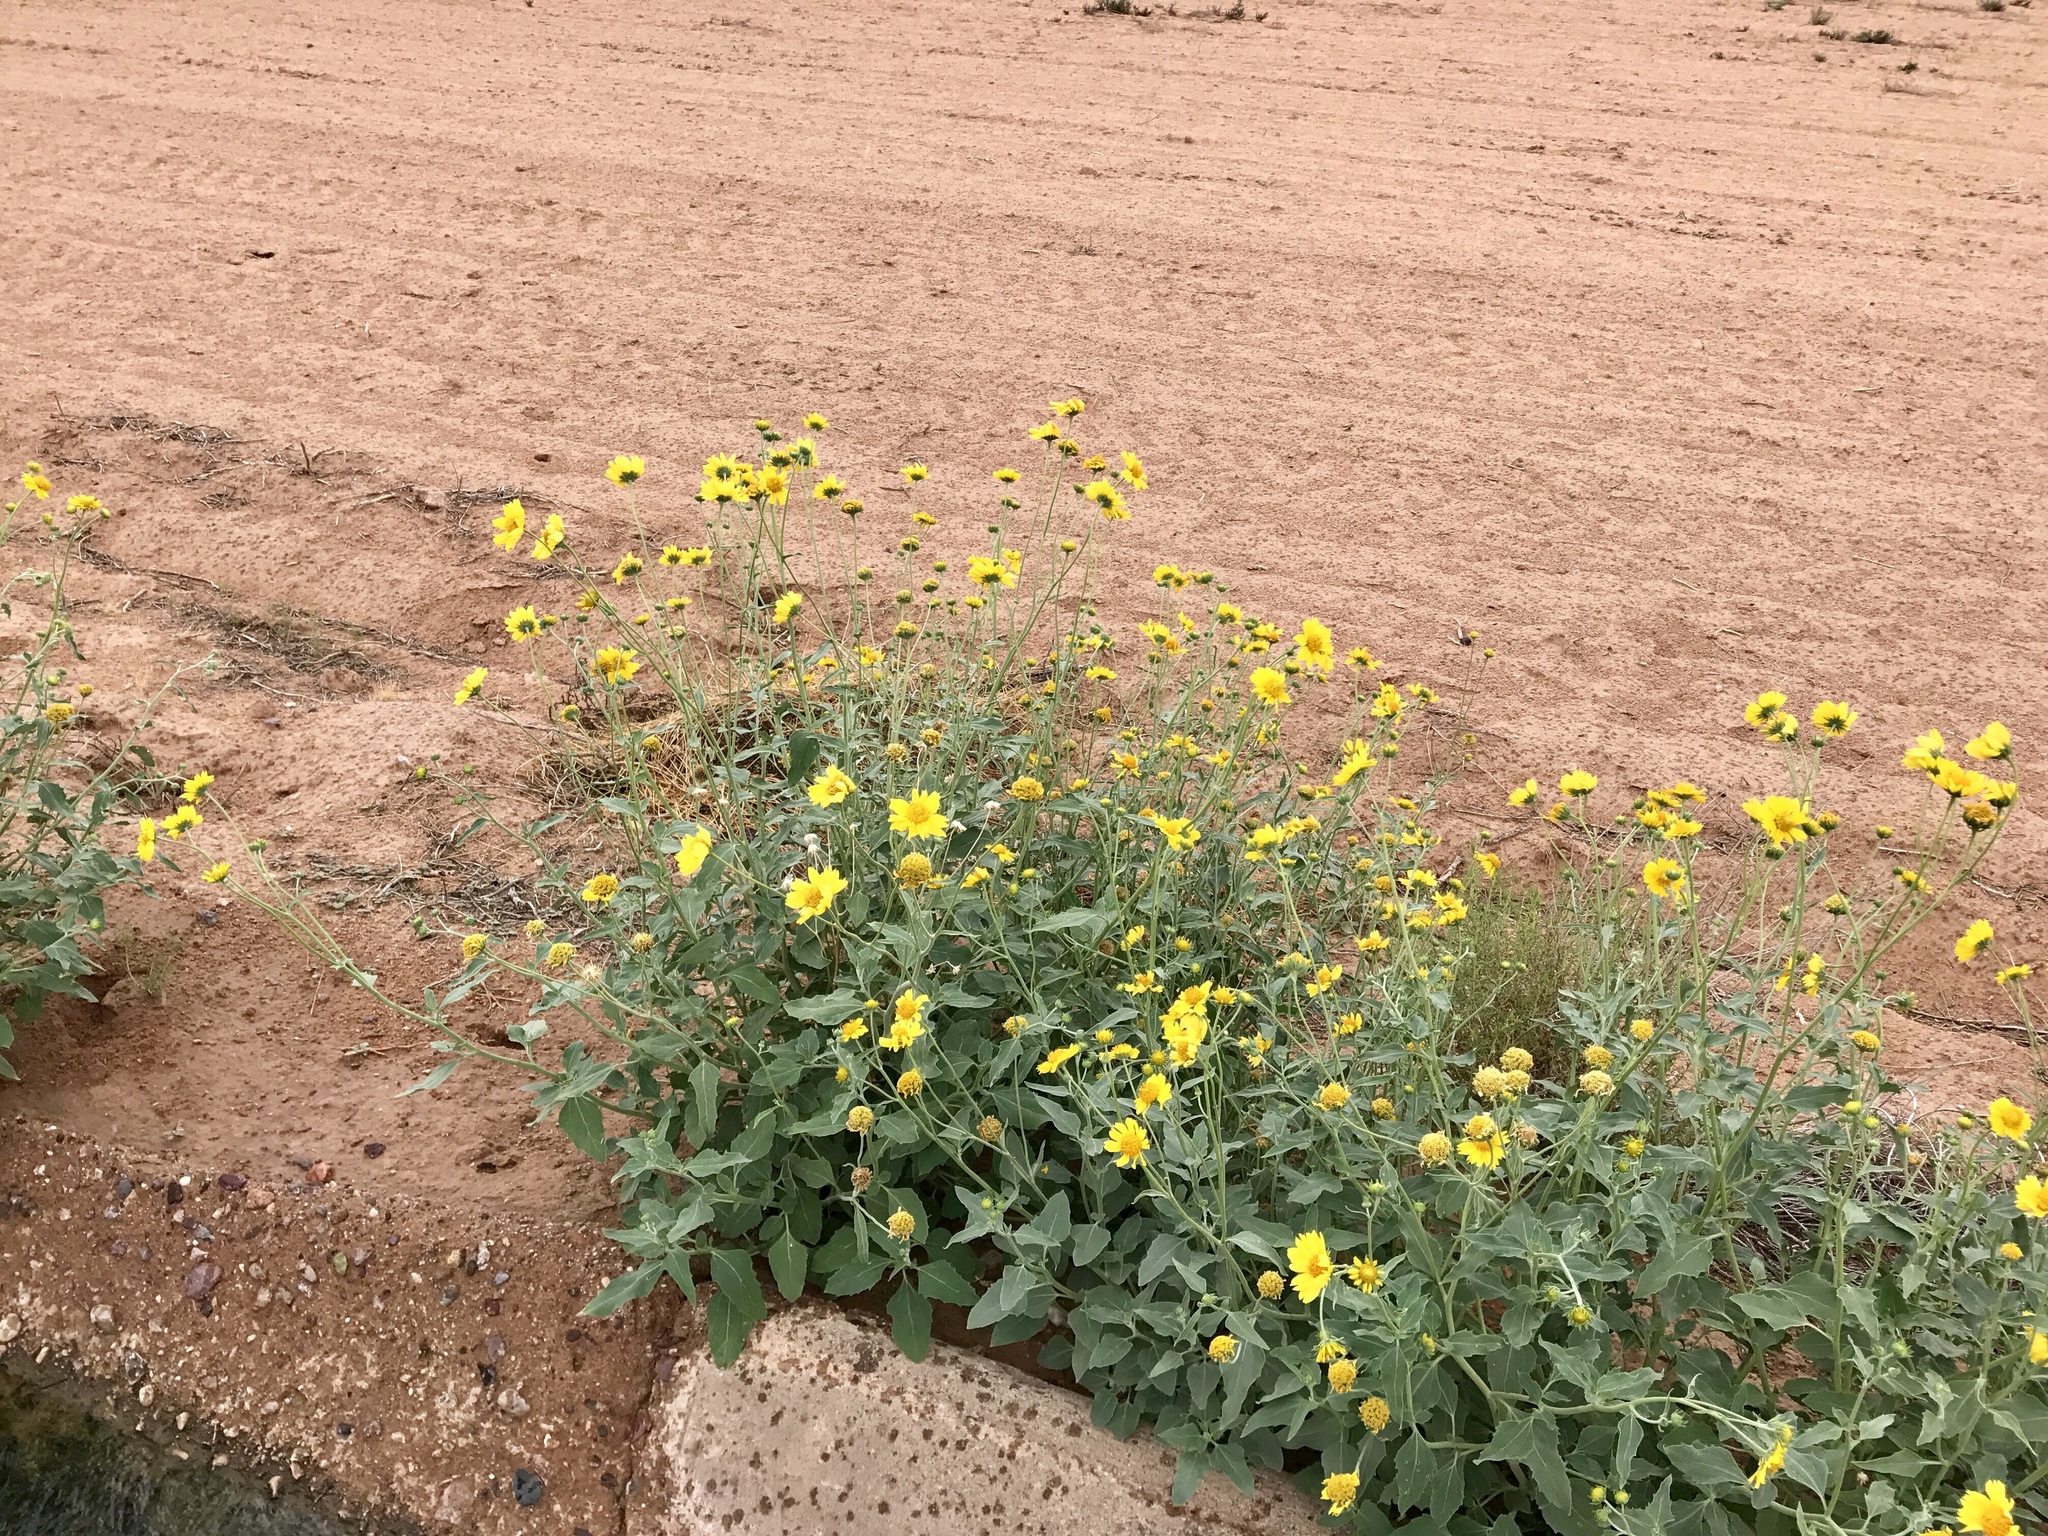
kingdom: Plantae
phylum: Tracheophyta
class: Magnoliopsida
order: Asterales
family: Asteraceae
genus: Verbesina
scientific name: Verbesina encelioides
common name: Golden crownbeard
